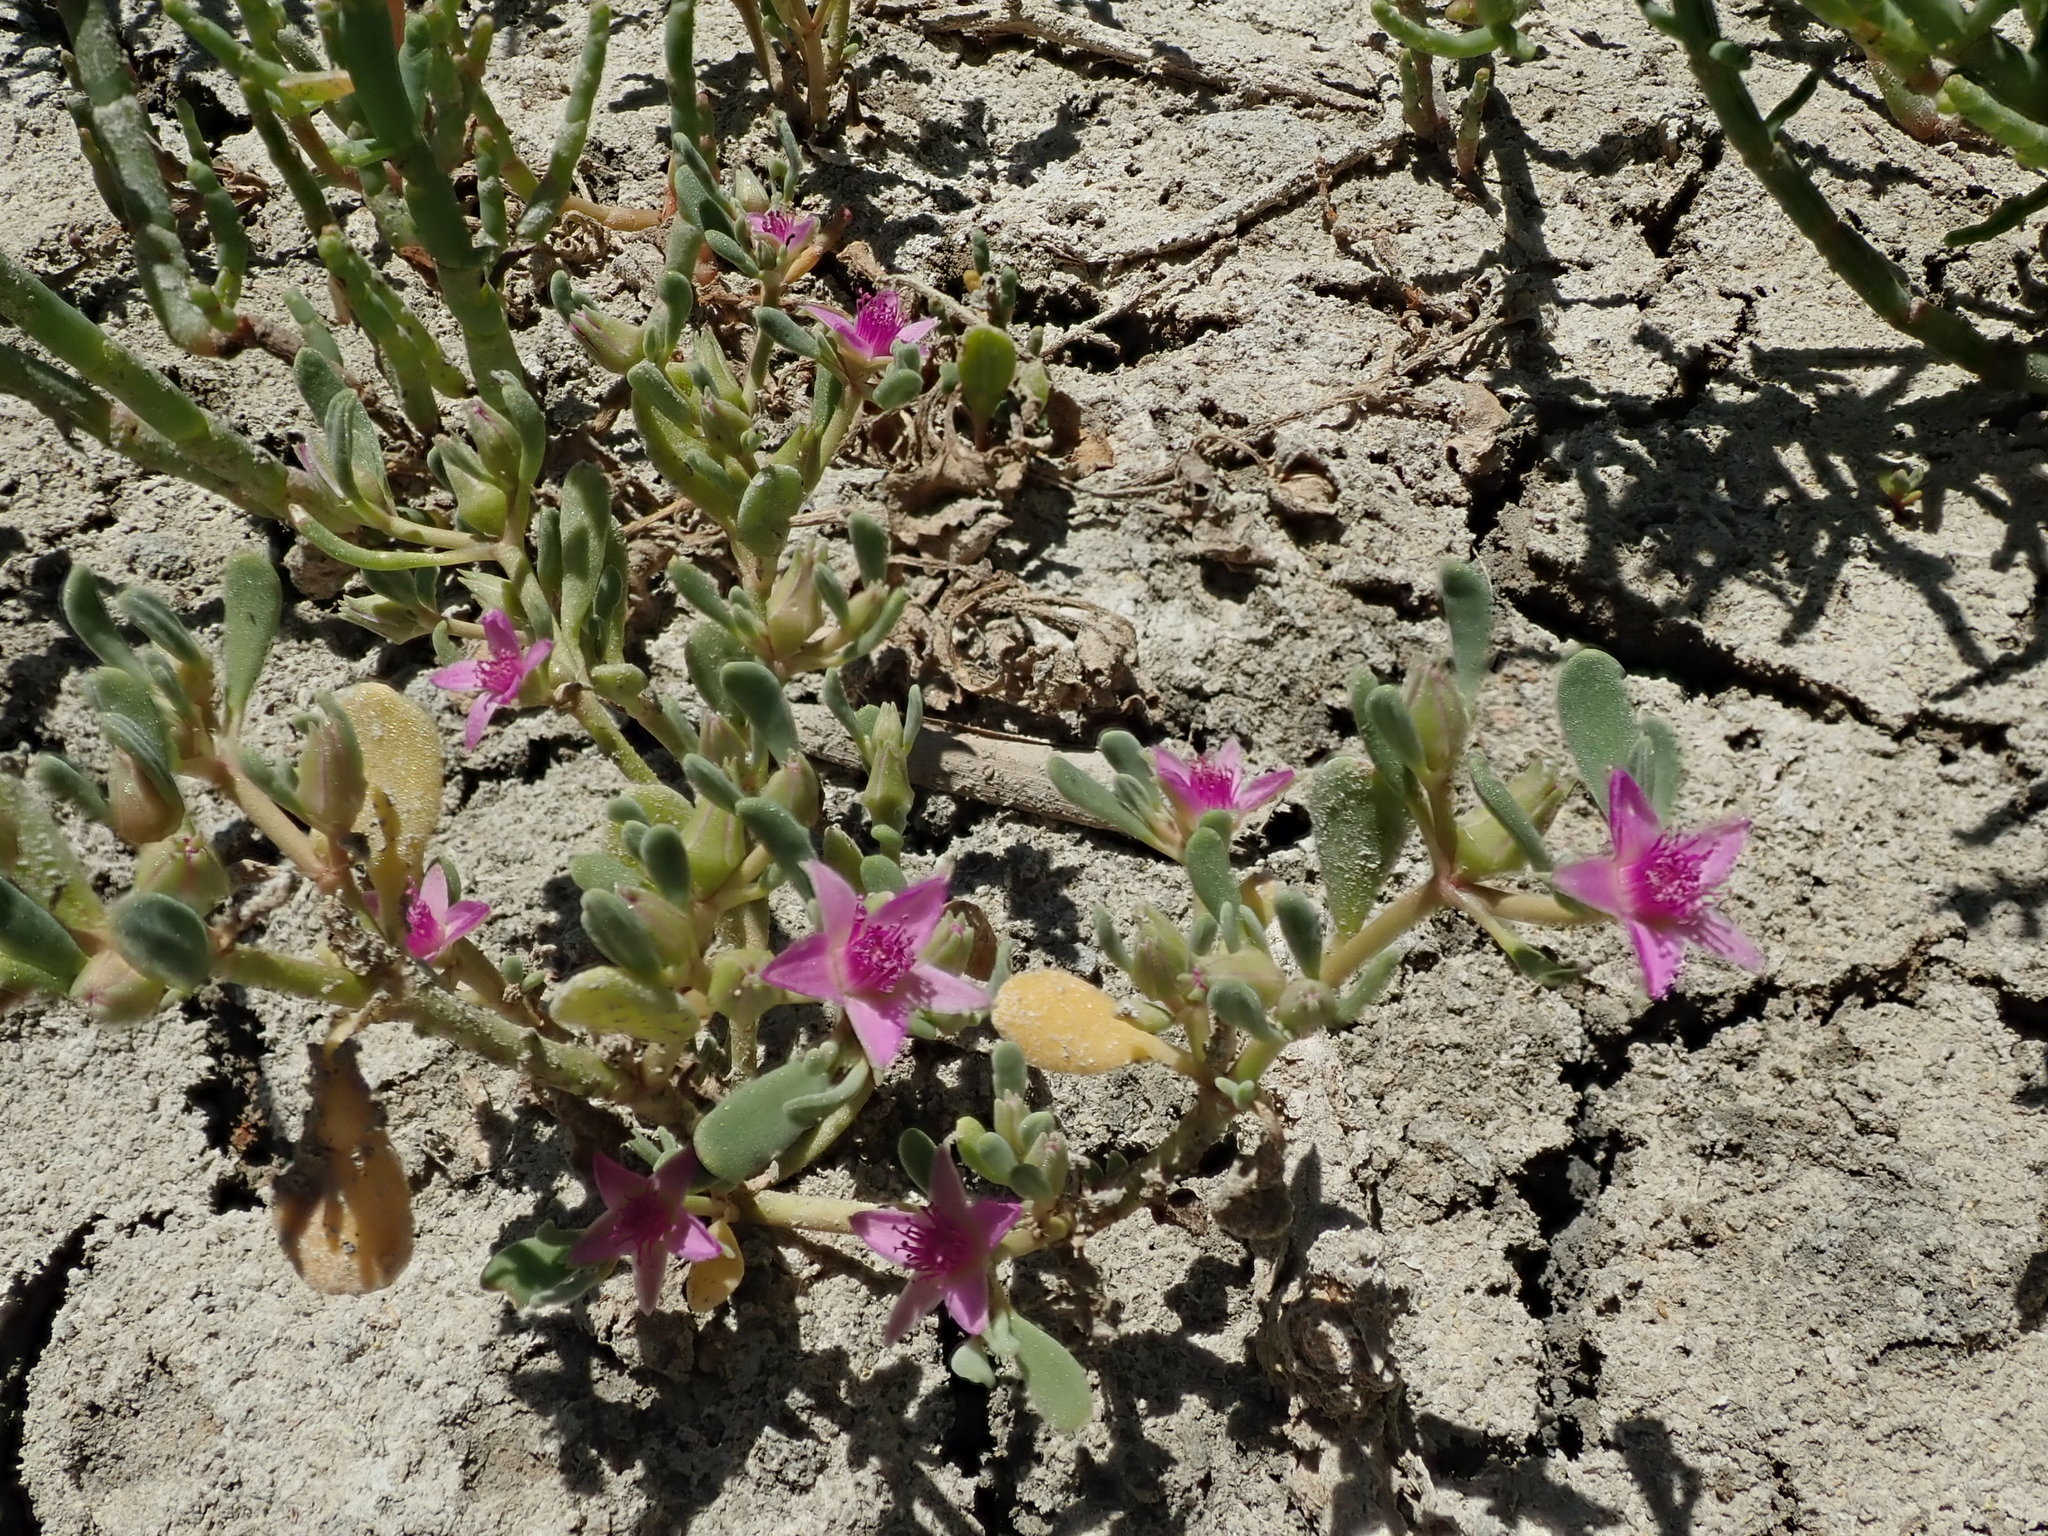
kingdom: Plantae
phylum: Tracheophyta
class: Magnoliopsida
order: Caryophyllales
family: Aizoaceae
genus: Sesuvium
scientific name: Sesuvium revolutifolium
